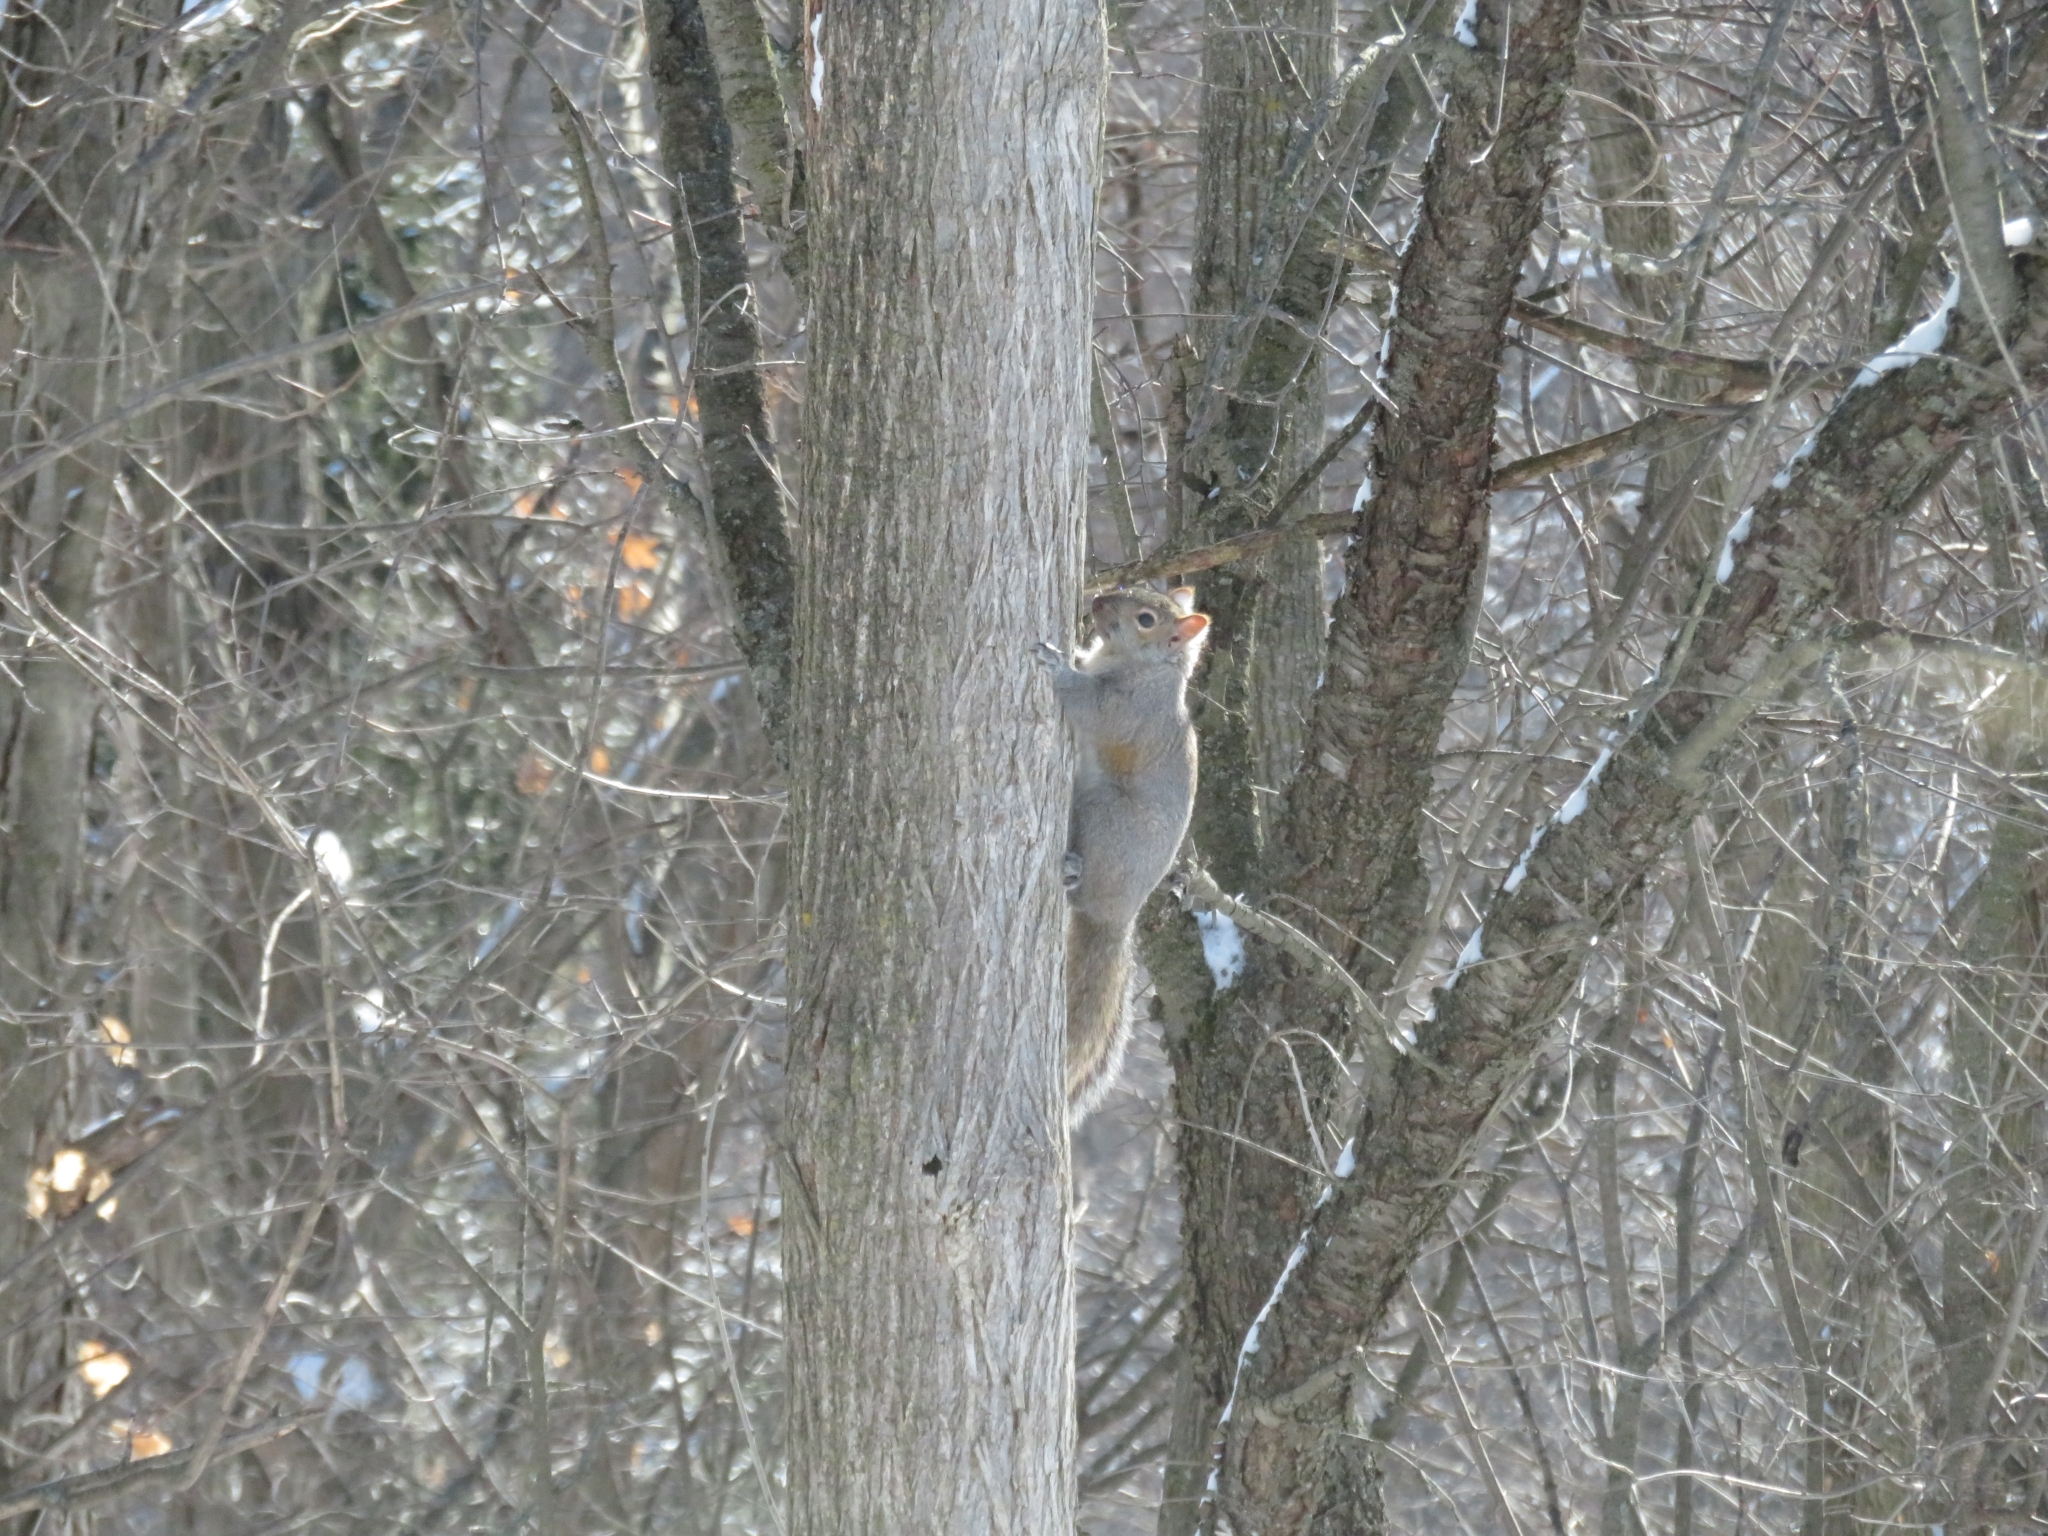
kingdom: Animalia
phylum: Chordata
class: Mammalia
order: Rodentia
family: Sciuridae
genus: Sciurus
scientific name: Sciurus carolinensis
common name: Eastern gray squirrel
